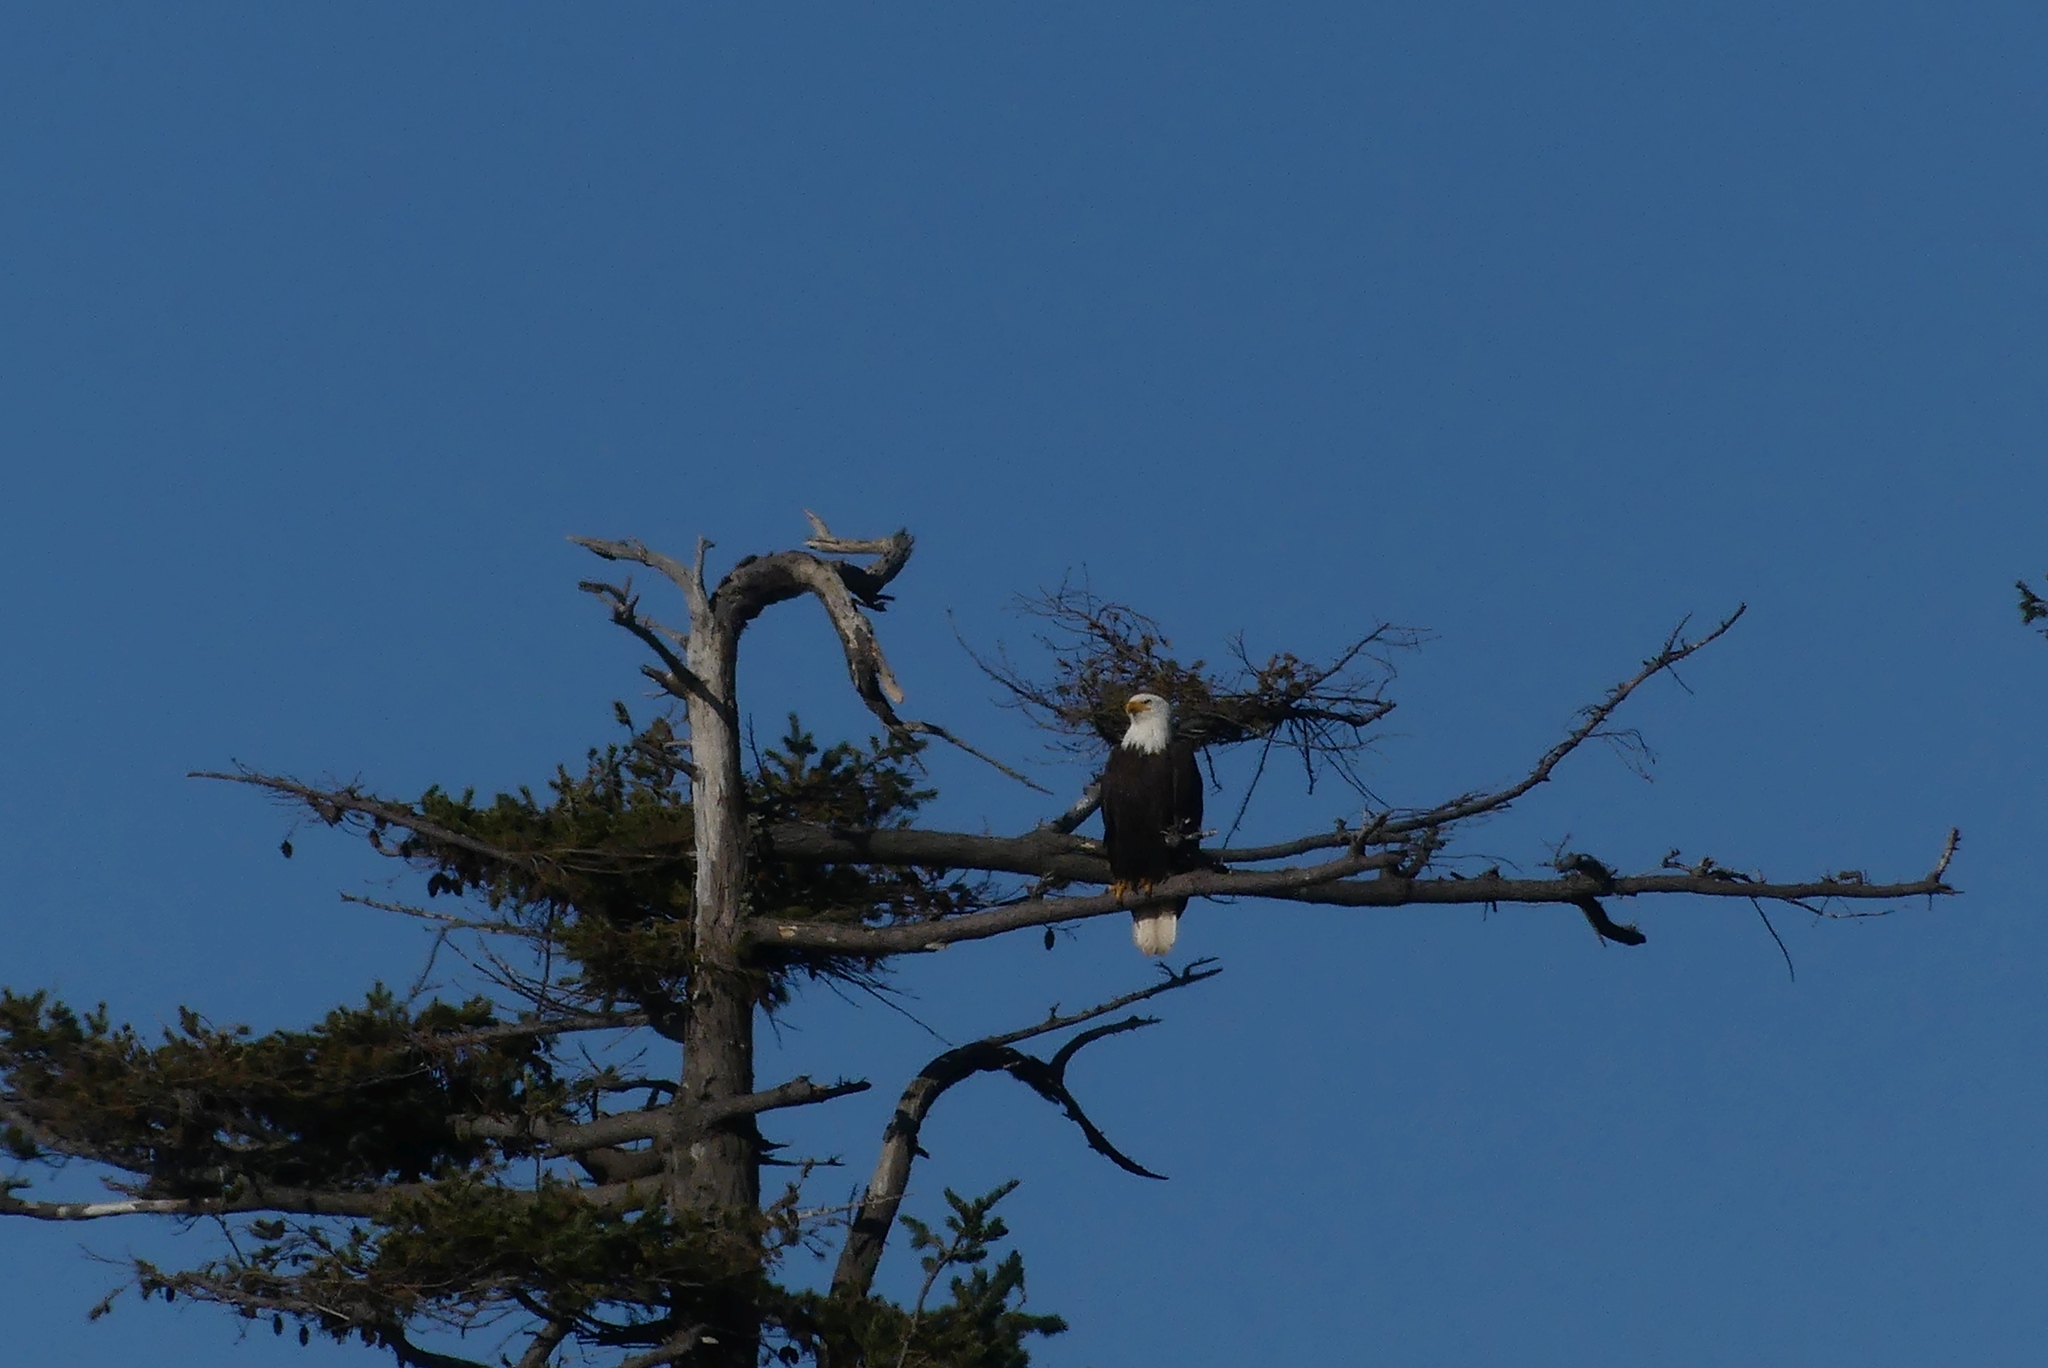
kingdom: Animalia
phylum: Chordata
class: Aves
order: Accipitriformes
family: Accipitridae
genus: Haliaeetus
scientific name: Haliaeetus leucocephalus
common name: Bald eagle
